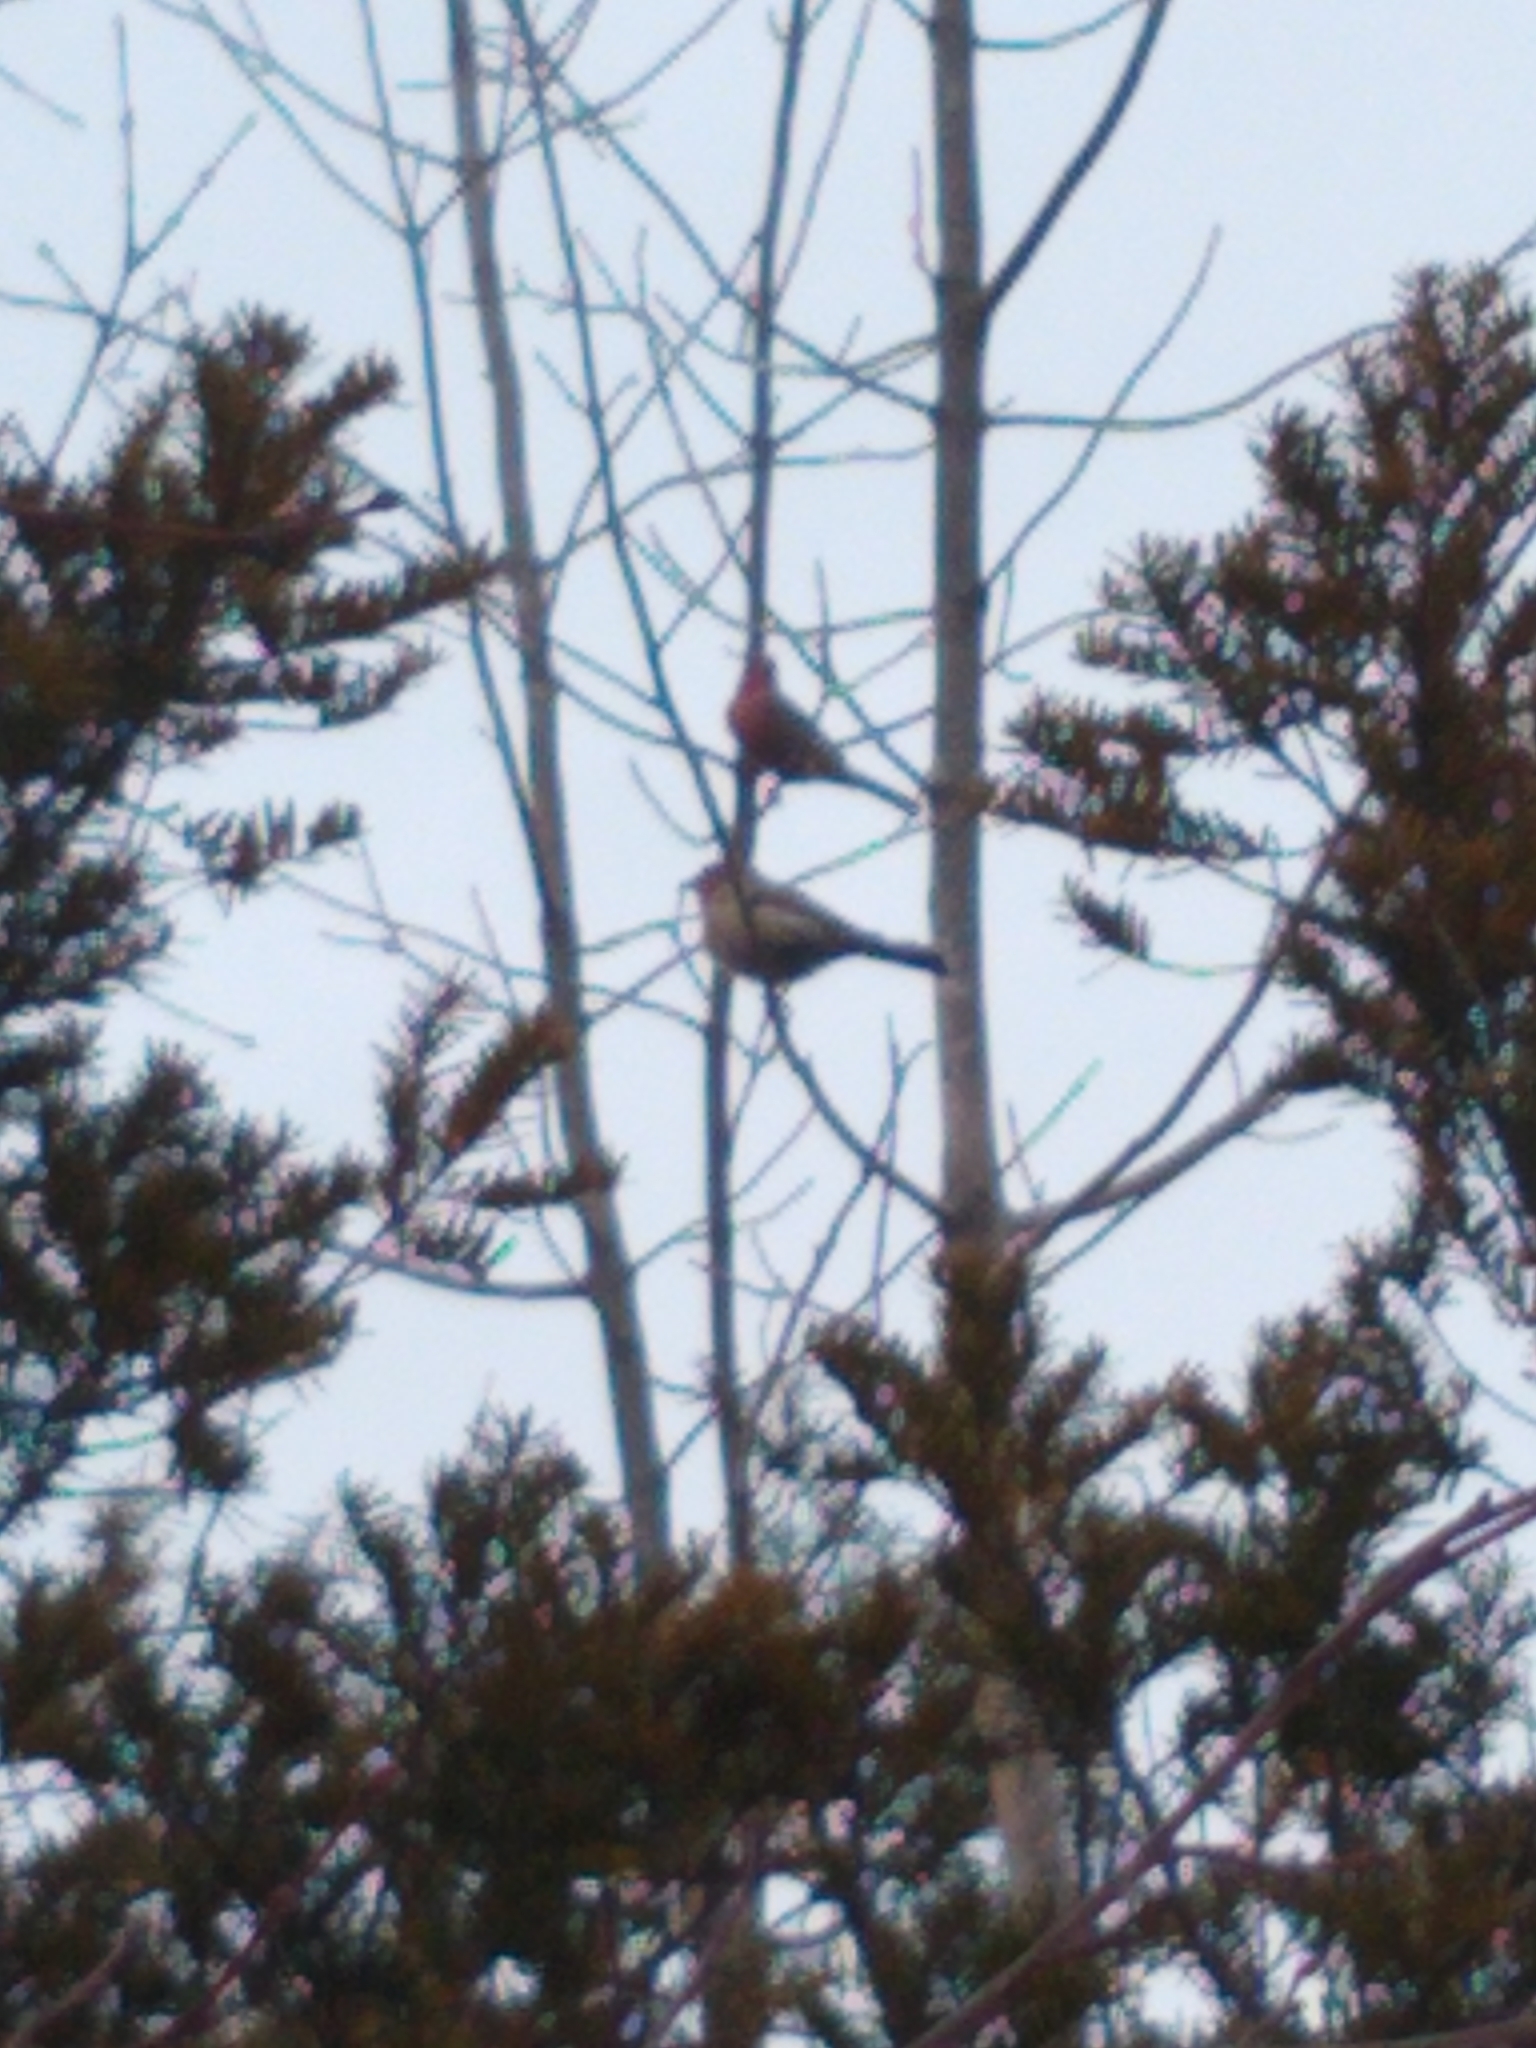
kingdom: Animalia
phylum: Chordata
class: Aves
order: Passeriformes
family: Fringillidae
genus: Haemorhous
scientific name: Haemorhous mexicanus
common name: House finch
